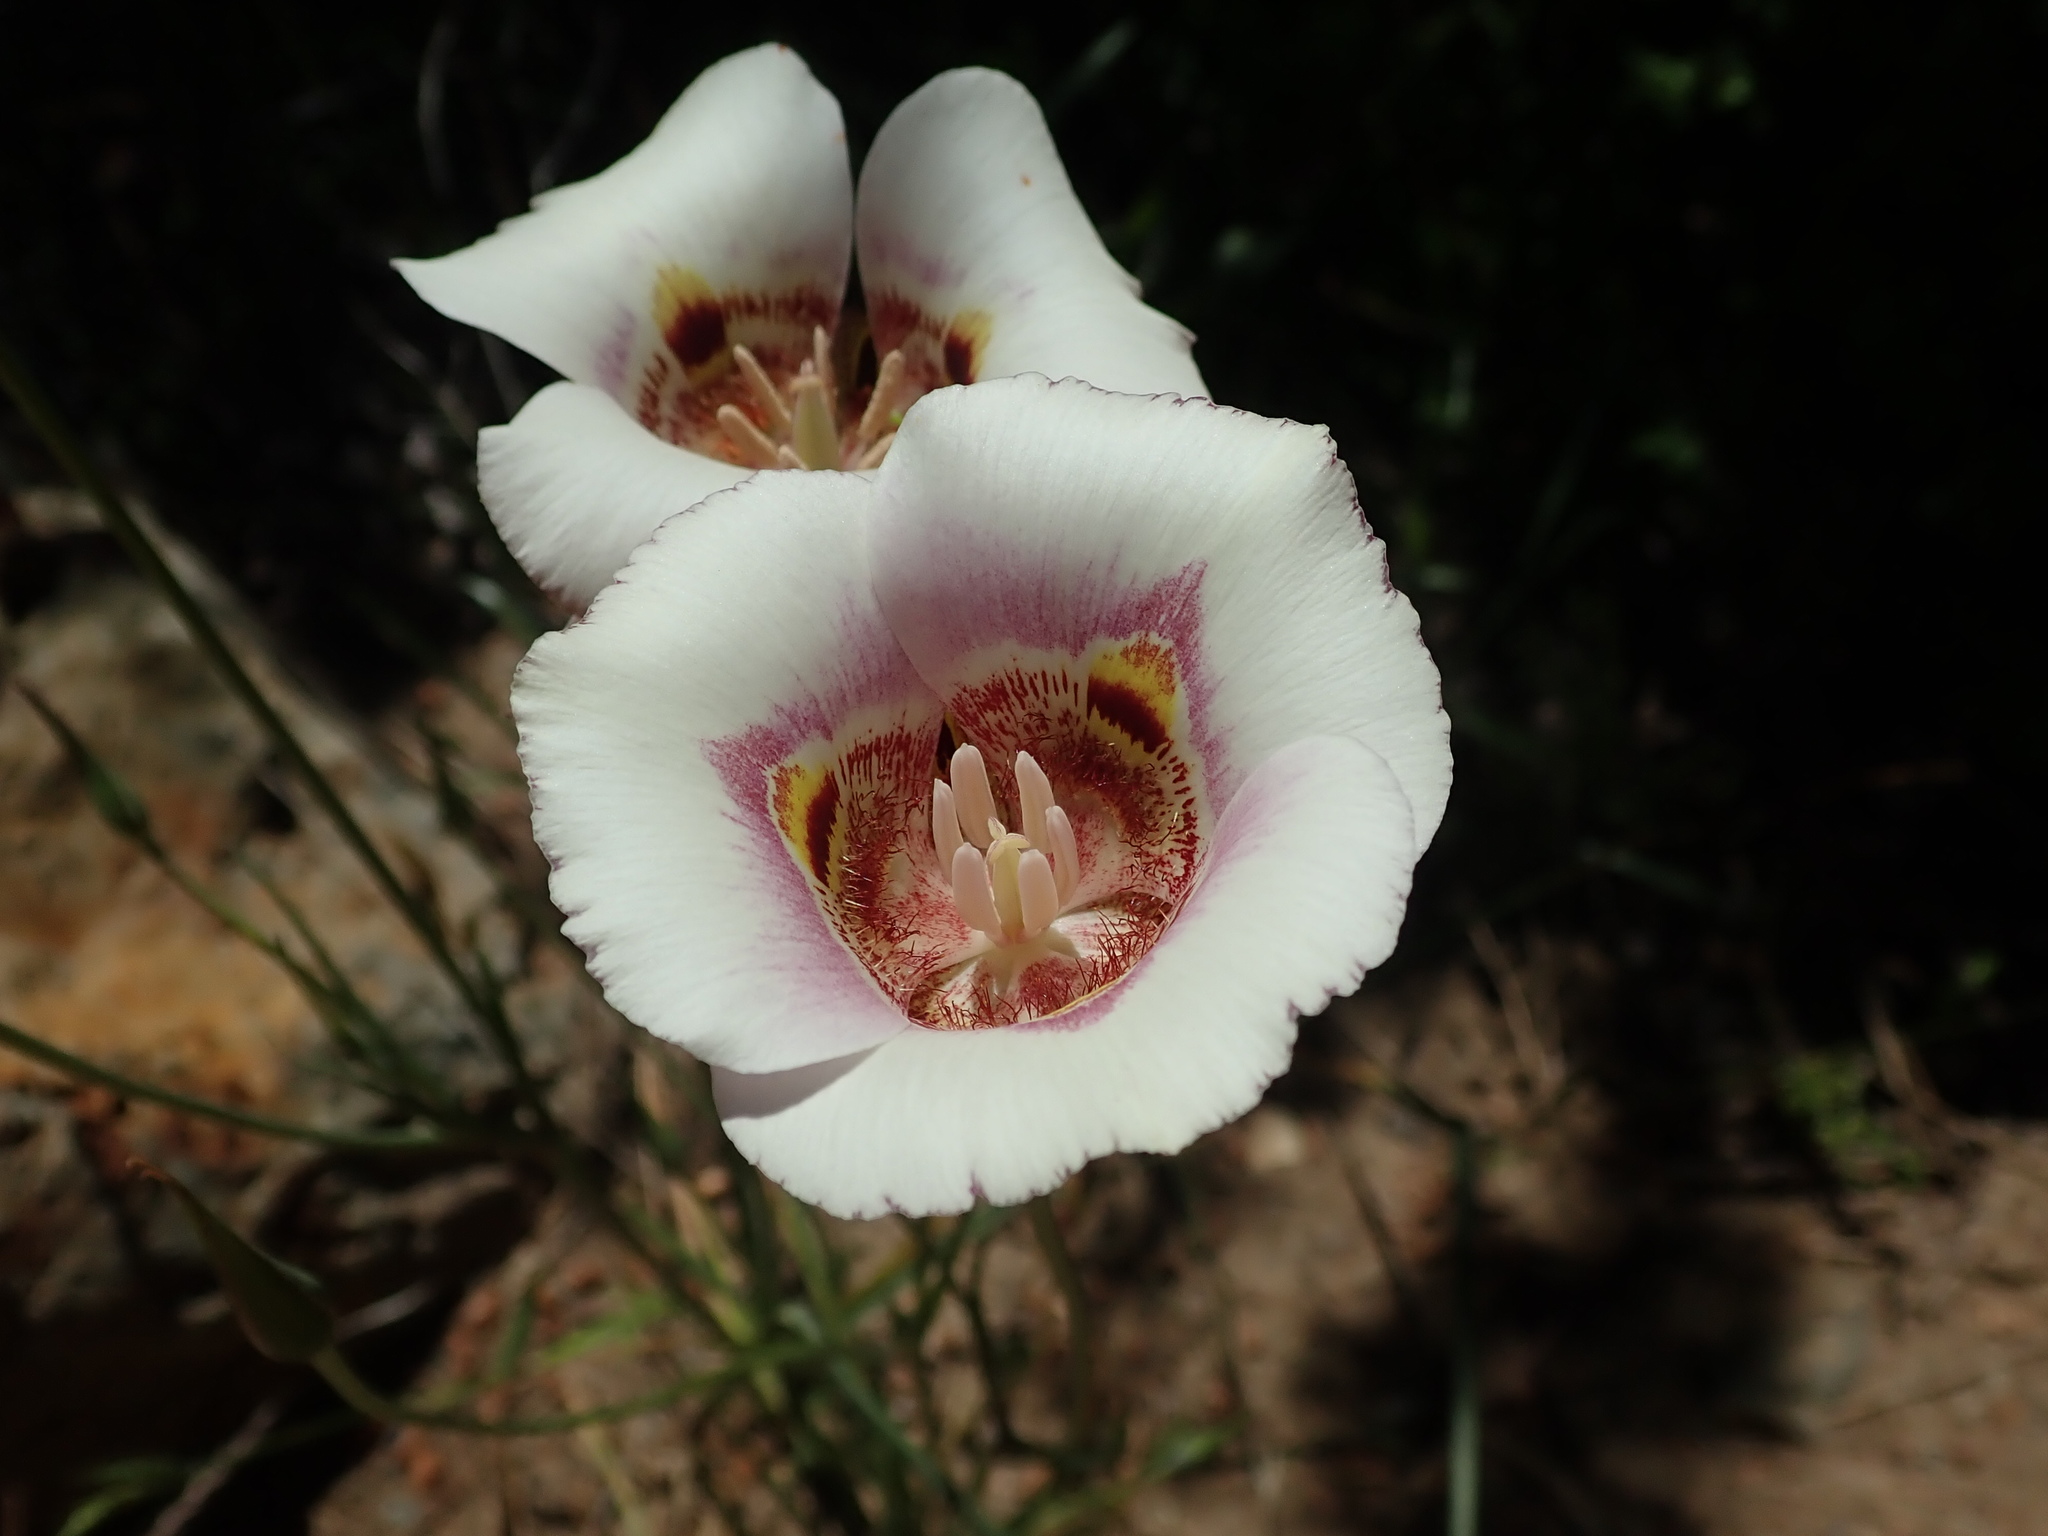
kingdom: Plantae
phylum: Tracheophyta
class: Liliopsida
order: Liliales
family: Liliaceae
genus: Calochortus
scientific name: Calochortus argillosus
